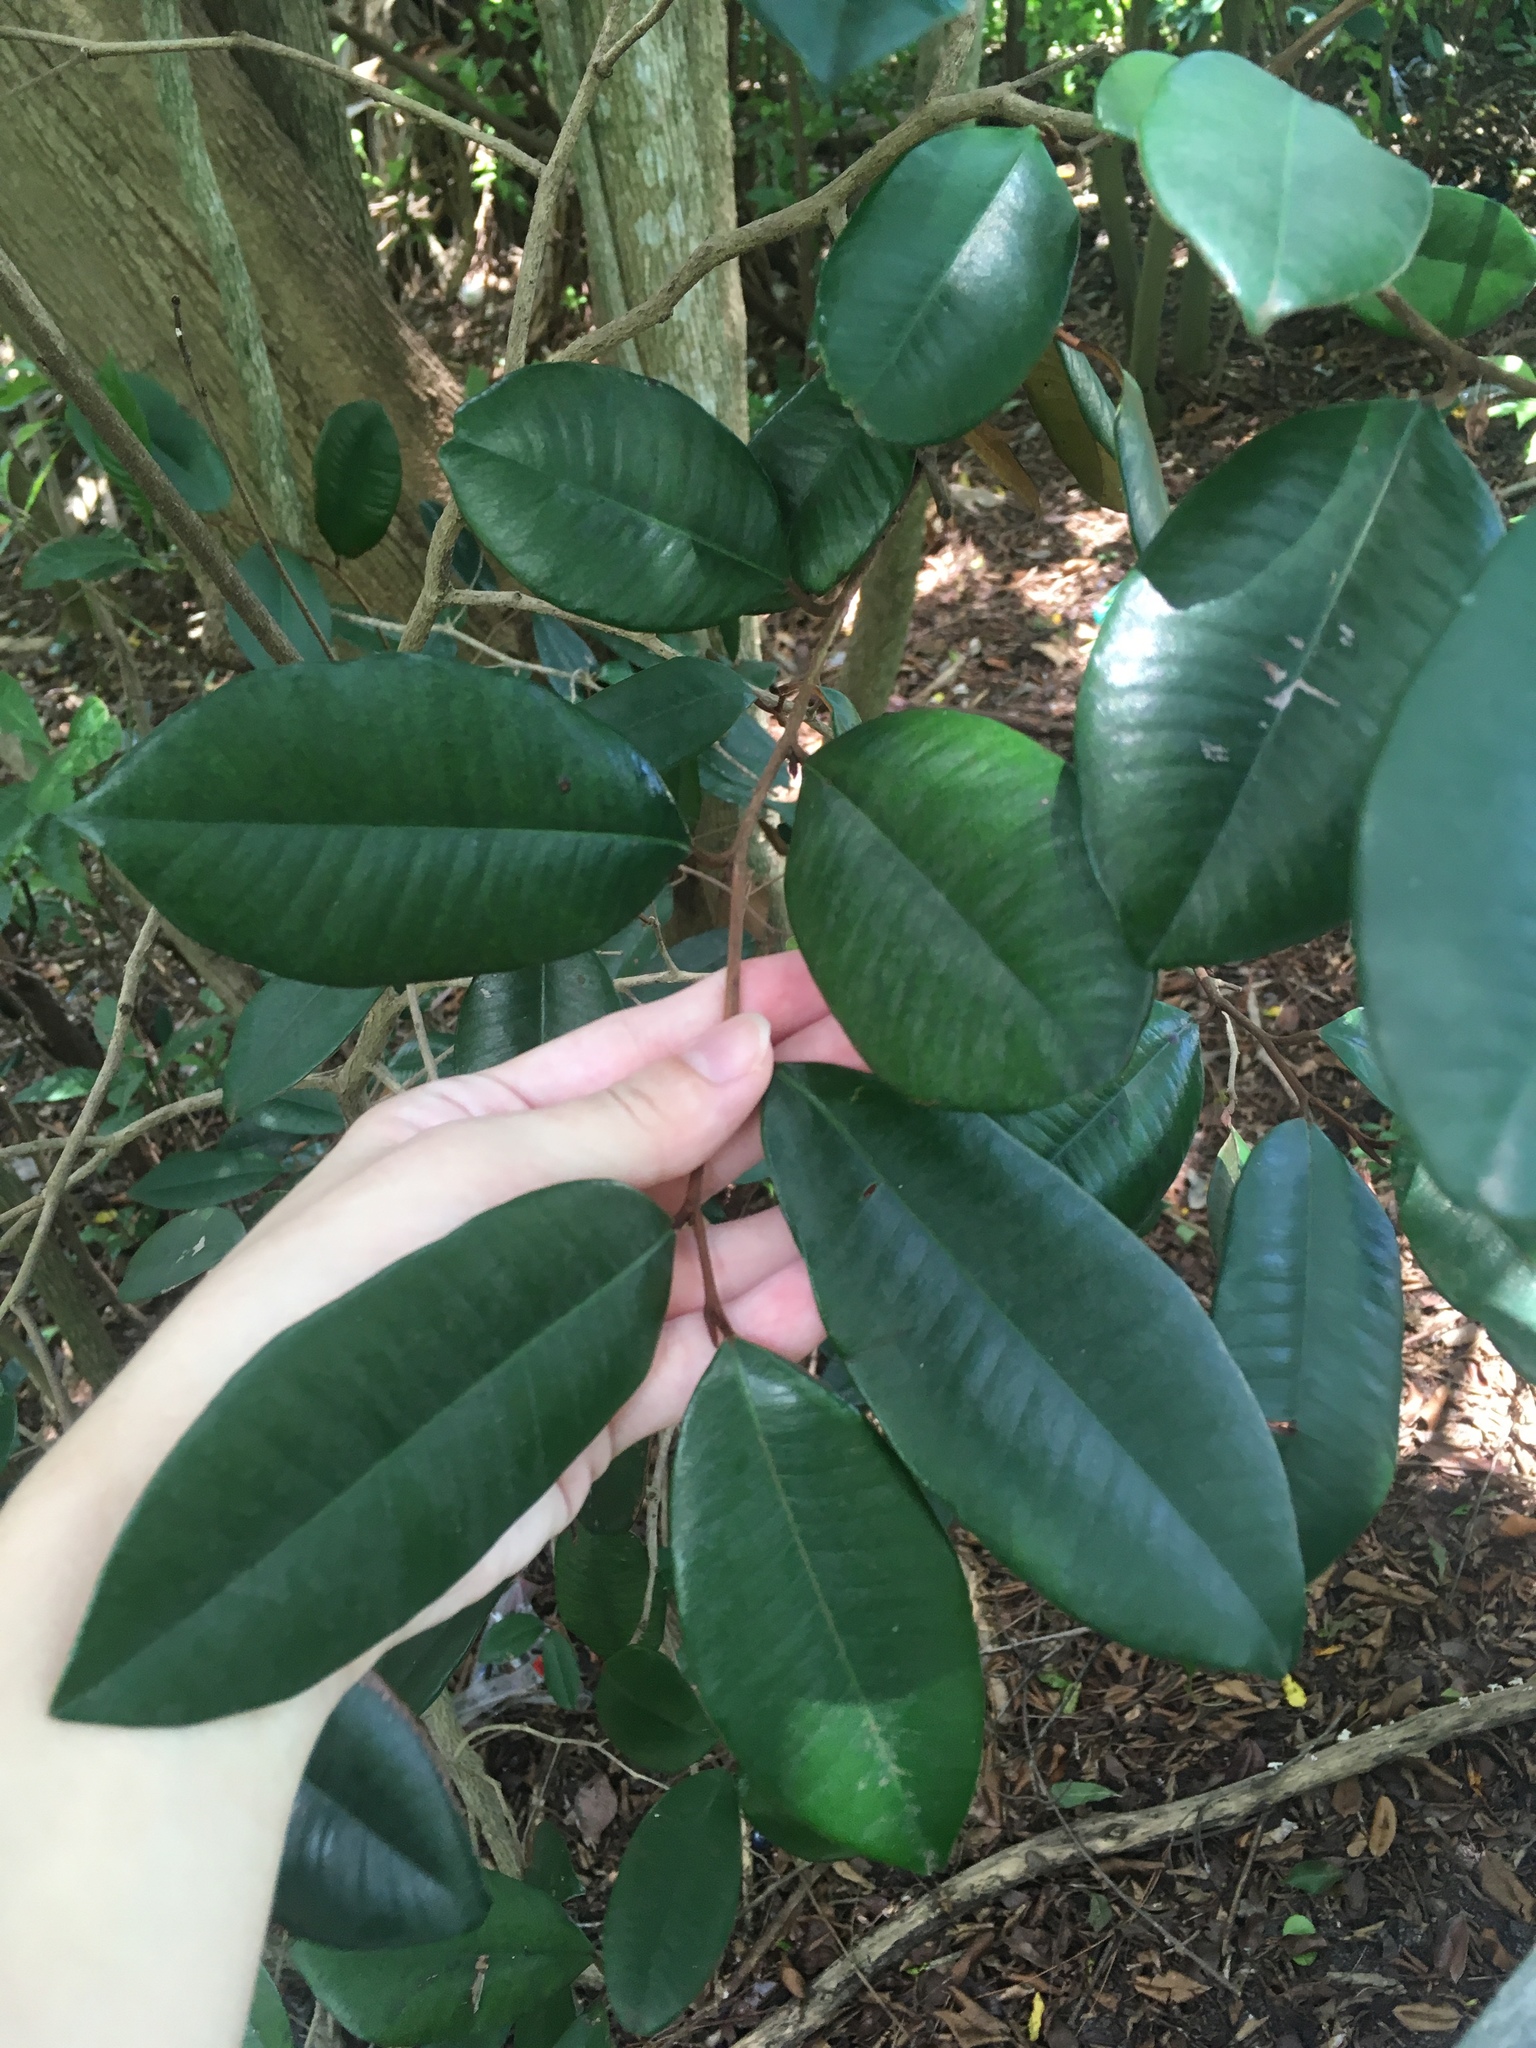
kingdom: Plantae
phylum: Tracheophyta
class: Magnoliopsida
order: Ericales
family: Sapotaceae
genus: Chrysophyllum
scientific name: Chrysophyllum oliviforme
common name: Satinleaf
